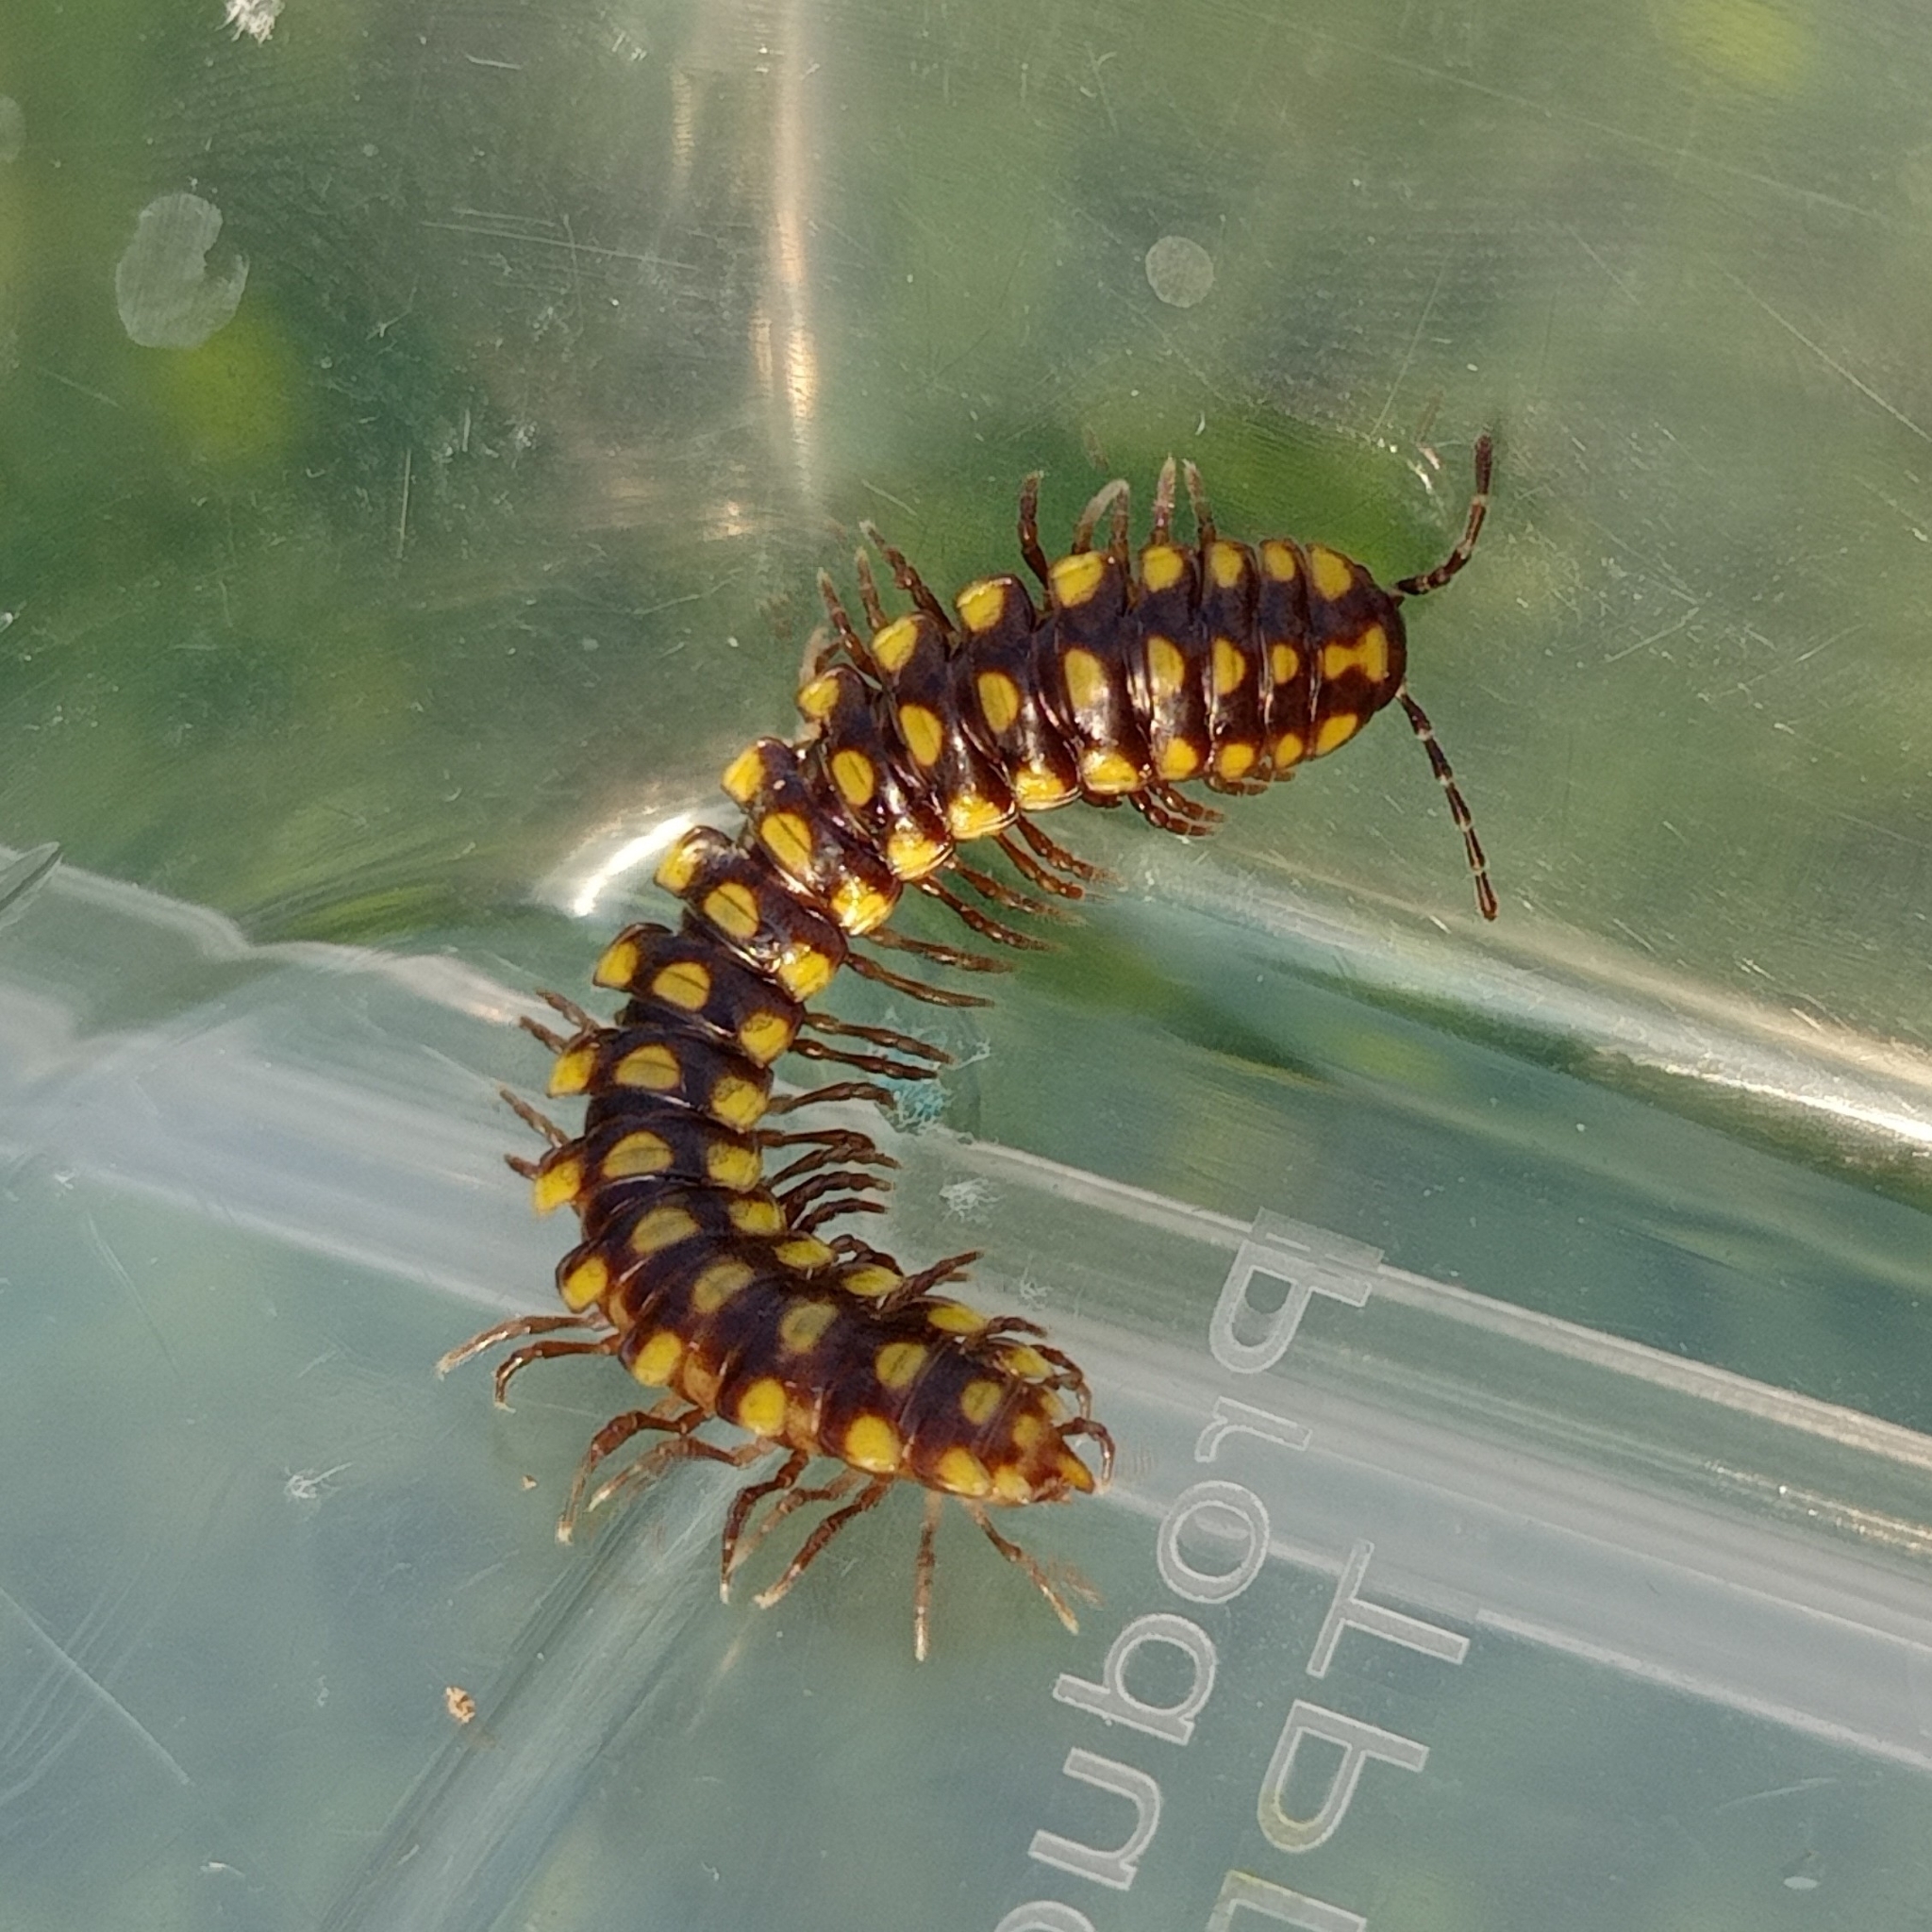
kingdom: Animalia
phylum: Arthropoda
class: Diplopoda
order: Polydesmida
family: Xystodesmidae
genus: Melaphe
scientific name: Melaphe vestita
